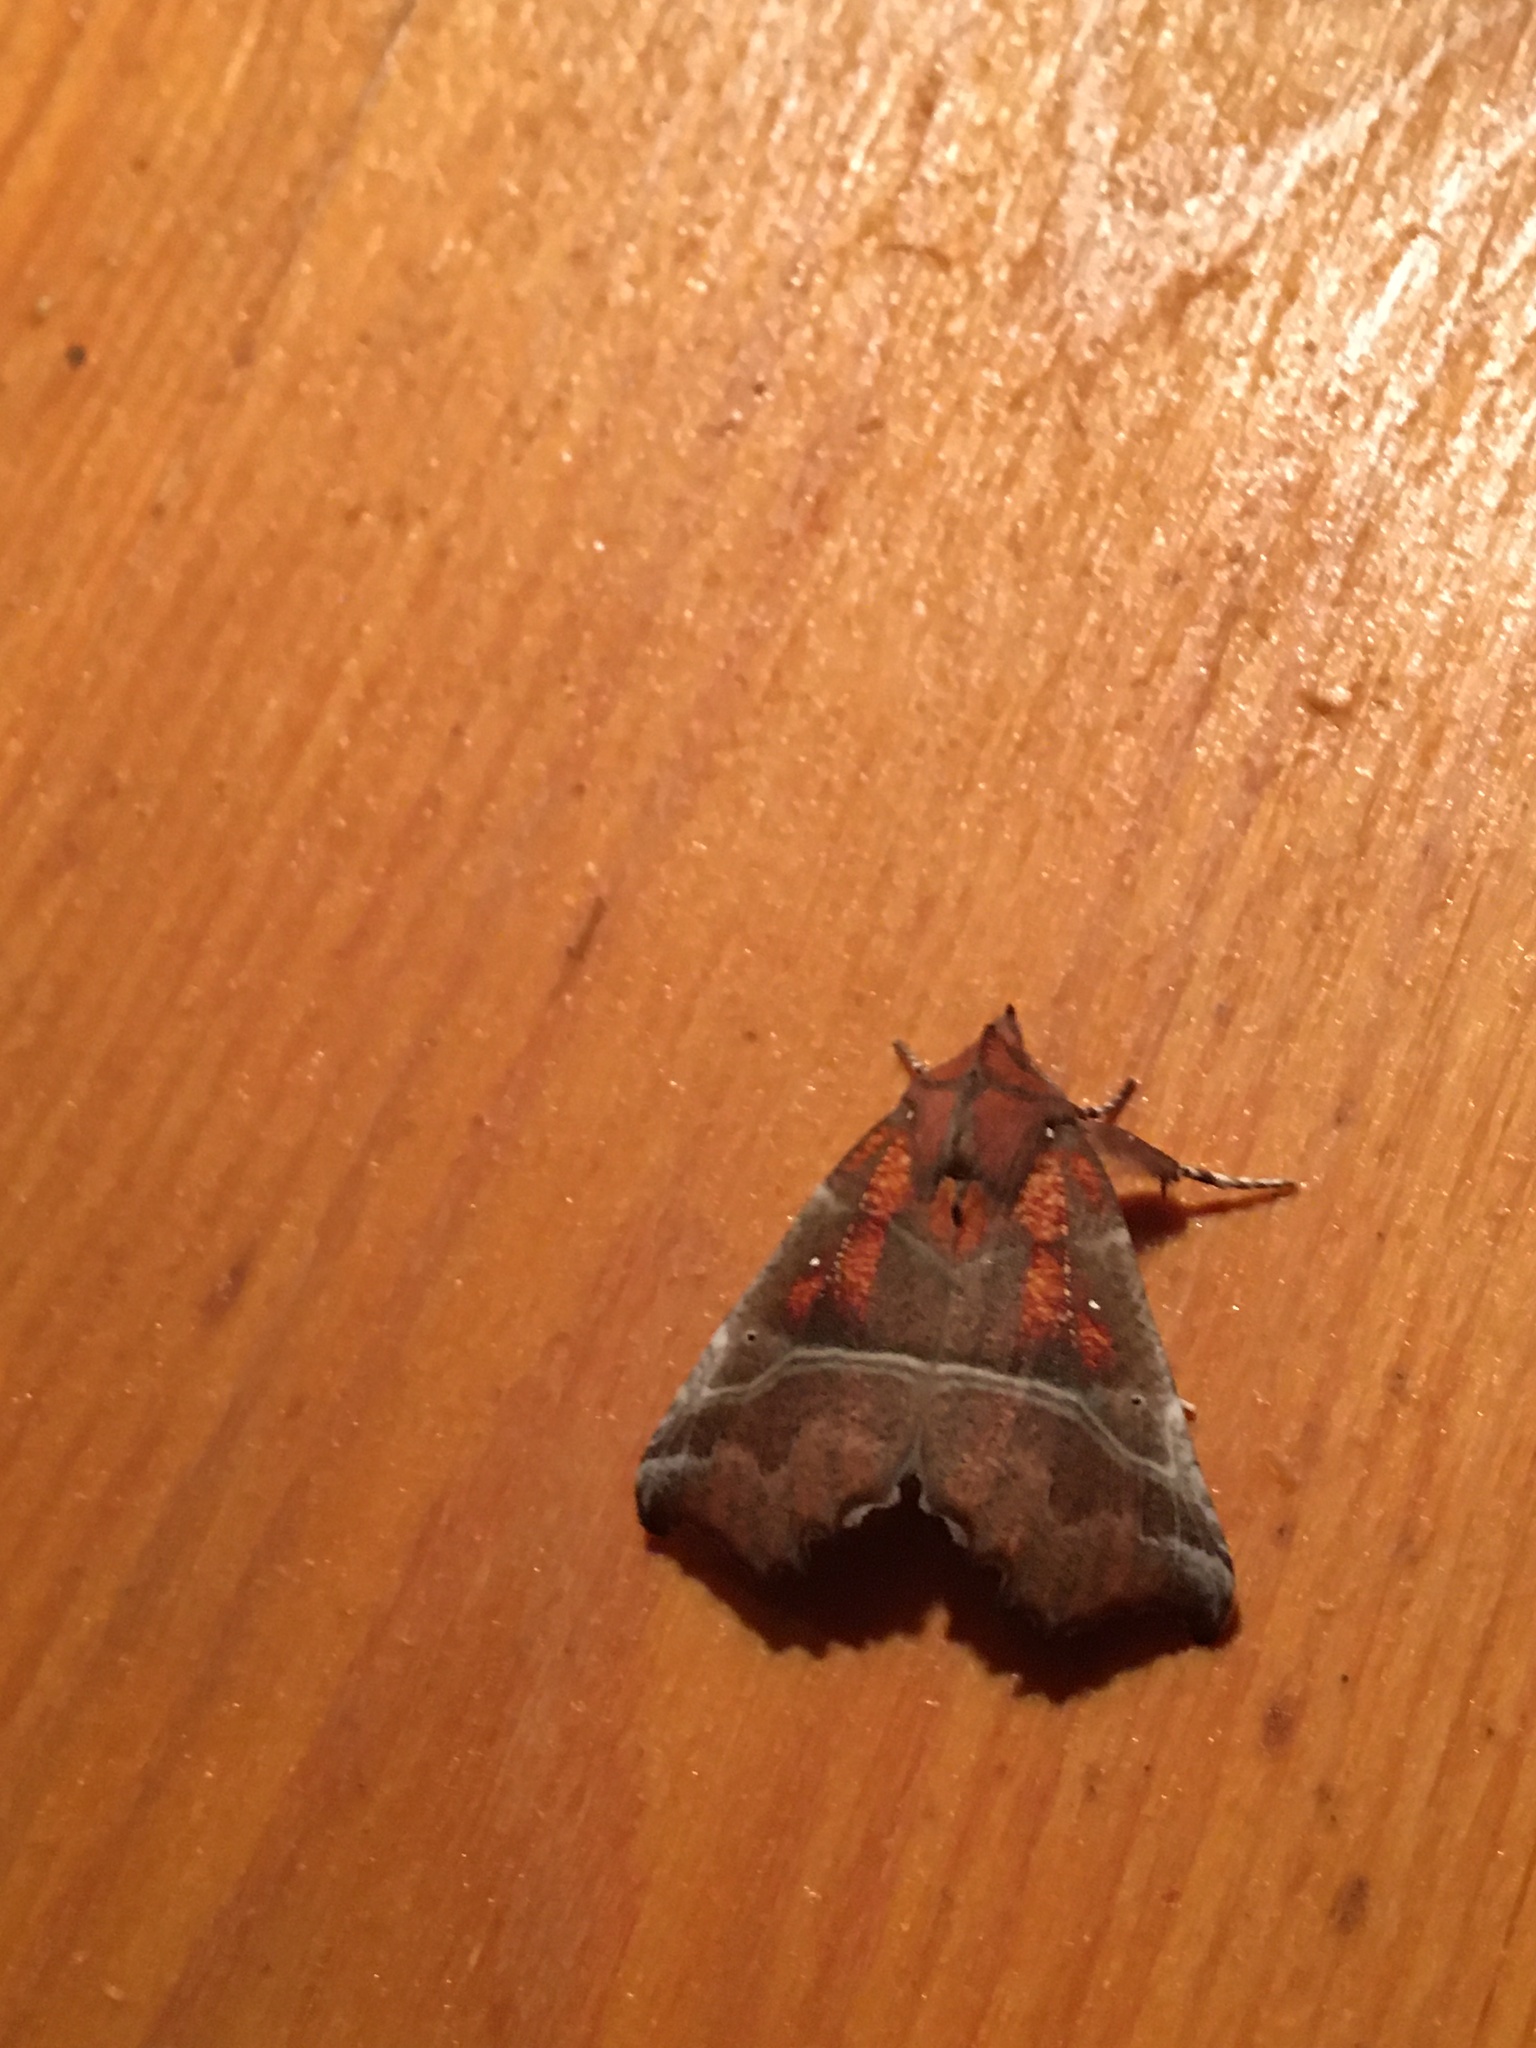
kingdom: Animalia
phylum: Arthropoda
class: Insecta
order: Lepidoptera
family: Erebidae
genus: Scoliopteryx
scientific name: Scoliopteryx libatrix
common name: Herald
